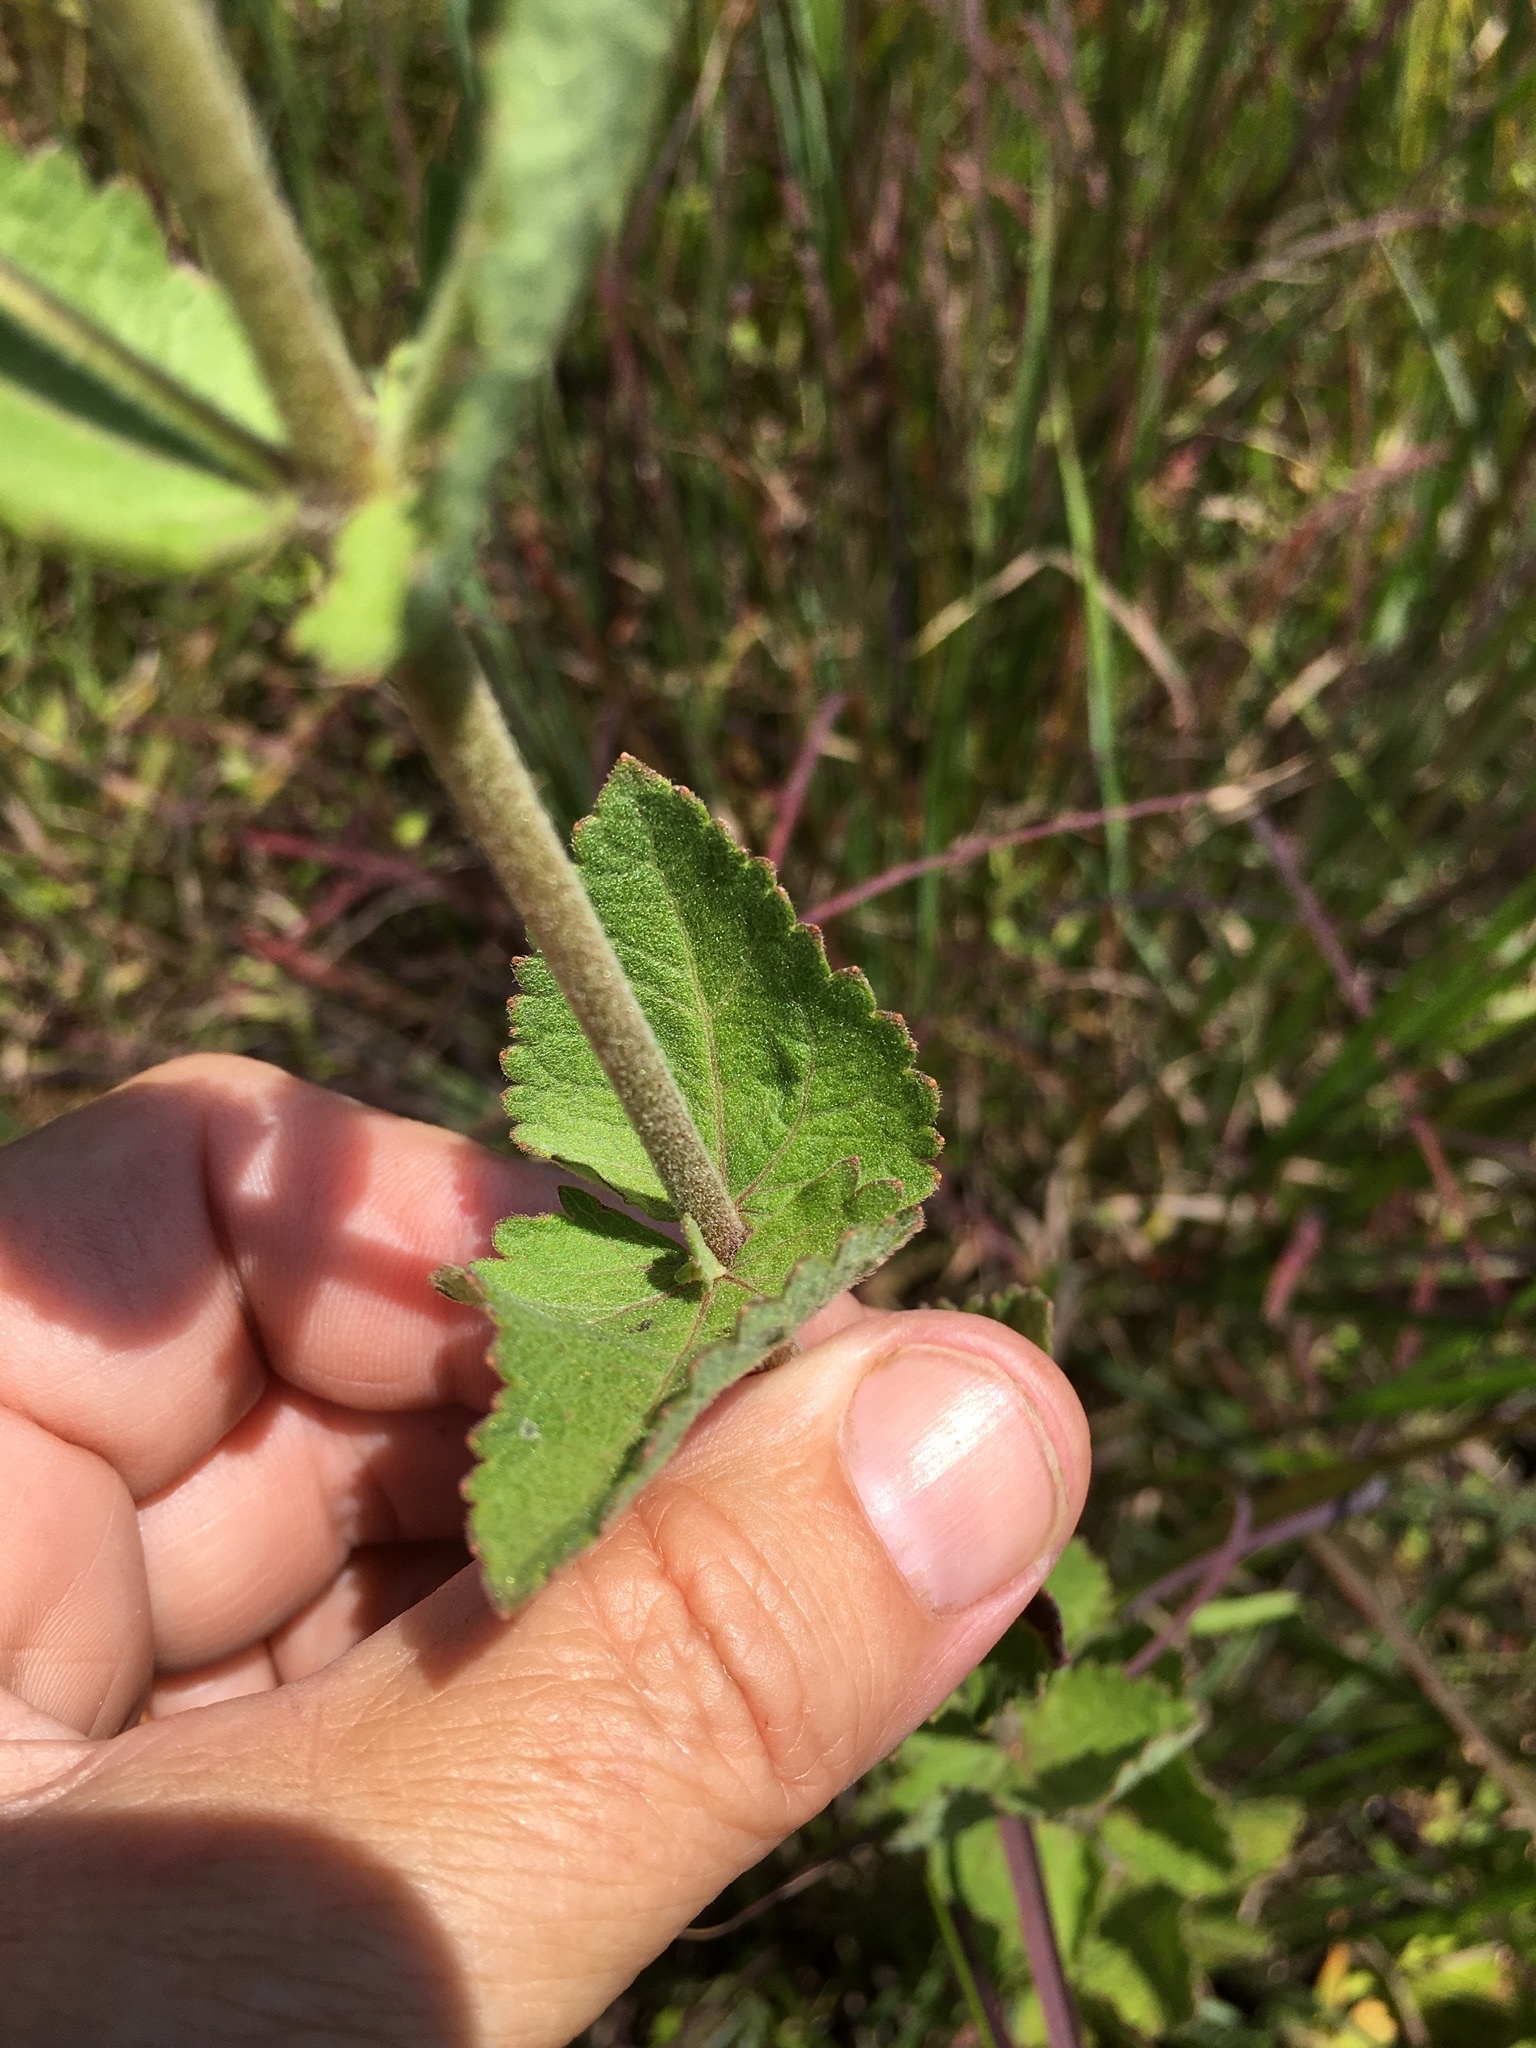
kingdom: Plantae
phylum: Tracheophyta
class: Magnoliopsida
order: Asterales
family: Asteraceae
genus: Eupatorium
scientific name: Eupatorium rotundifolium
